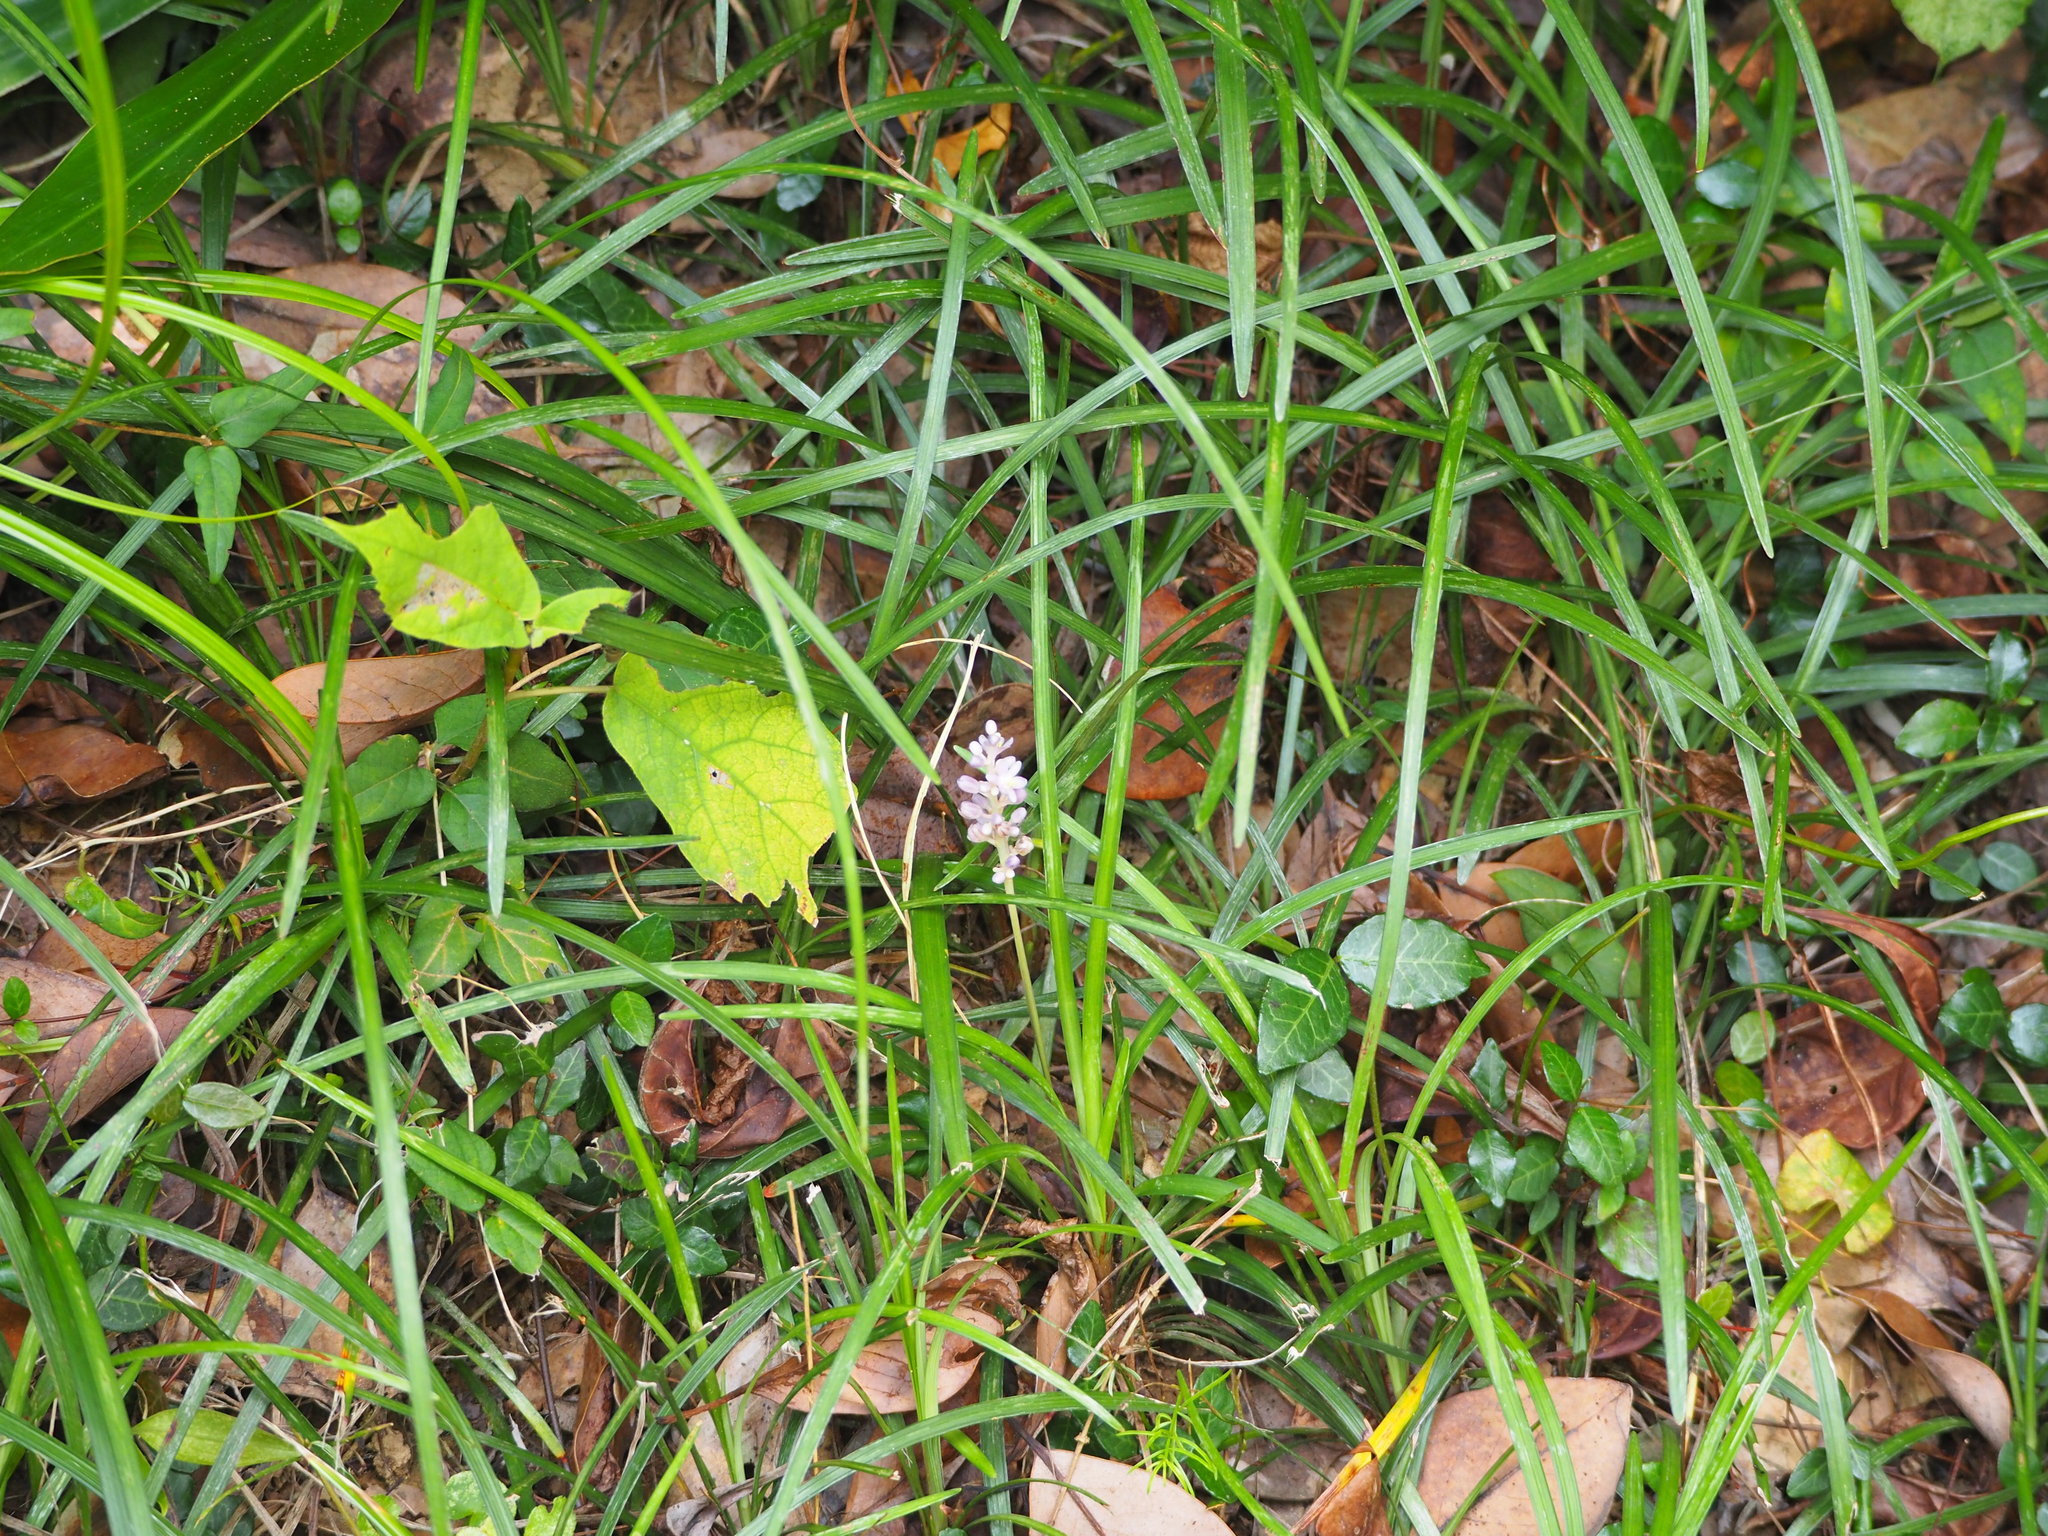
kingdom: Plantae
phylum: Tracheophyta
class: Liliopsida
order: Asparagales
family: Asparagaceae
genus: Liriope
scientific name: Liriope spicata
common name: Creeping liriope
